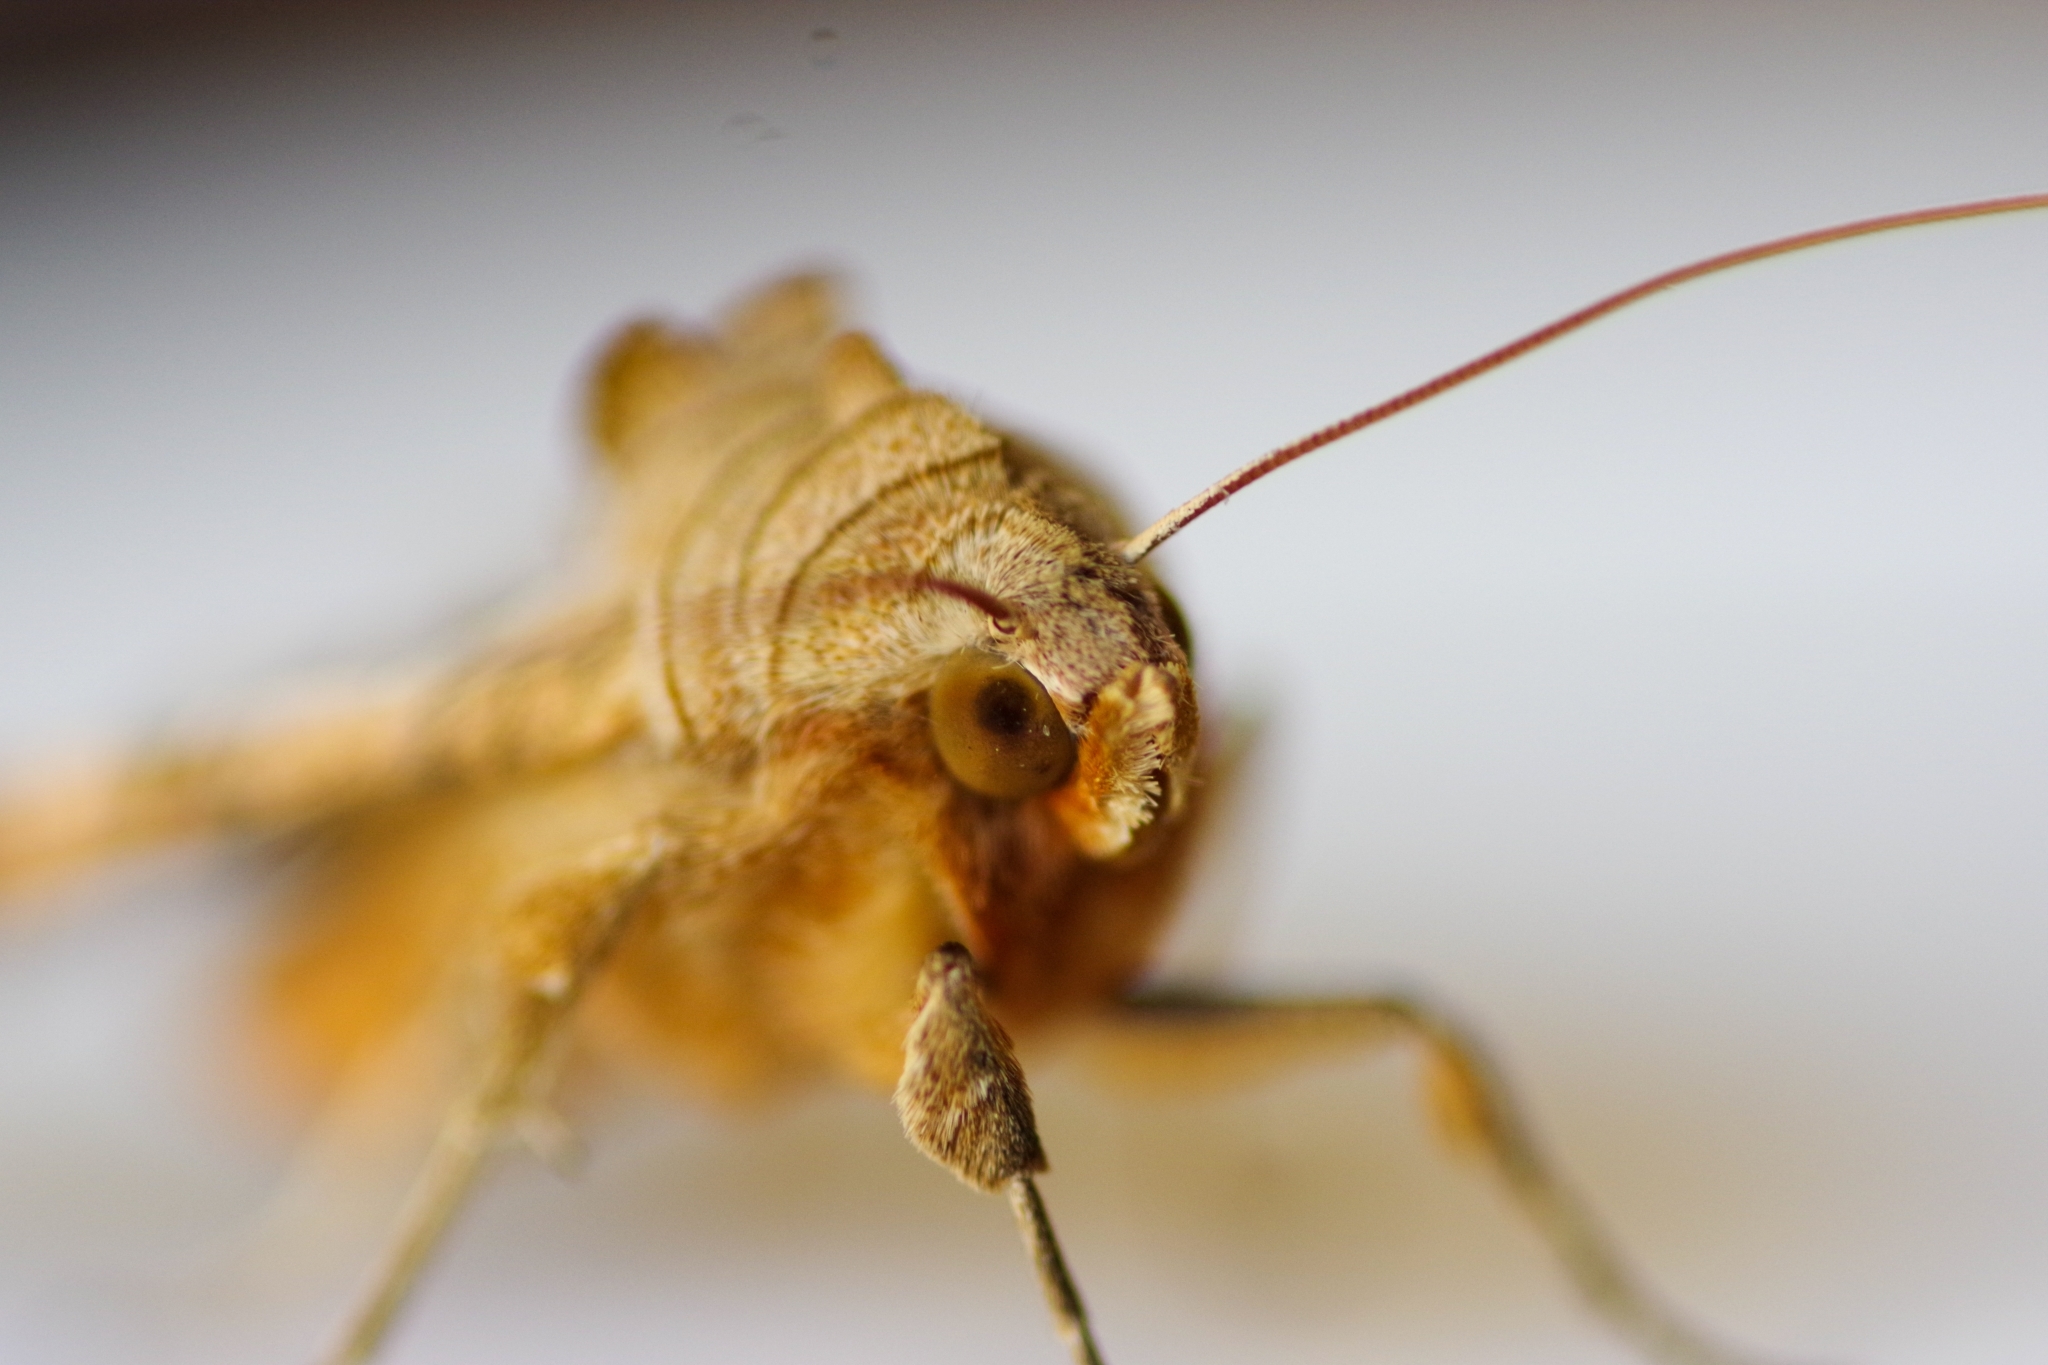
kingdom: Animalia
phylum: Arthropoda
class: Insecta
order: Lepidoptera
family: Noctuidae
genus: Phlogophora
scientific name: Phlogophora meticulosa
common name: Angle shades
